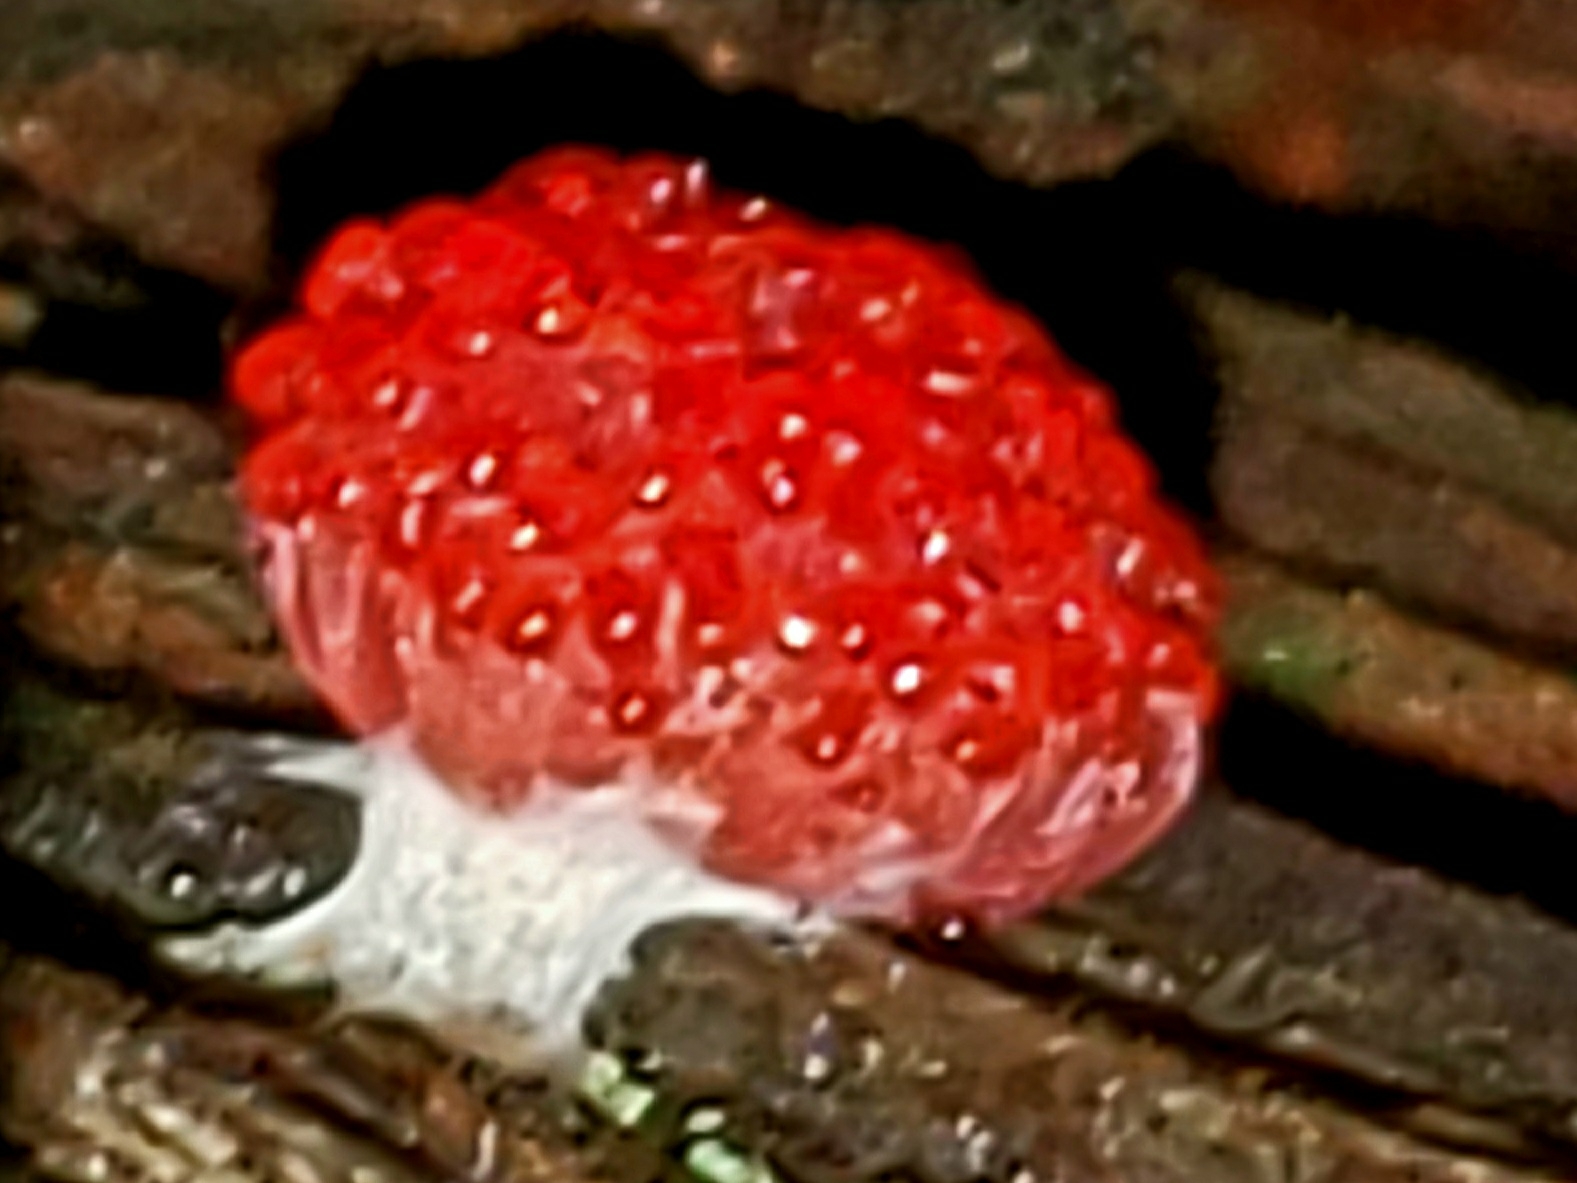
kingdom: Protozoa
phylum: Mycetozoa
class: Myxomycetes
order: Cribrariales
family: Tubiferaceae
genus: Tubifera
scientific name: Tubifera ferruginosa
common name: Red raspberry slime mold
